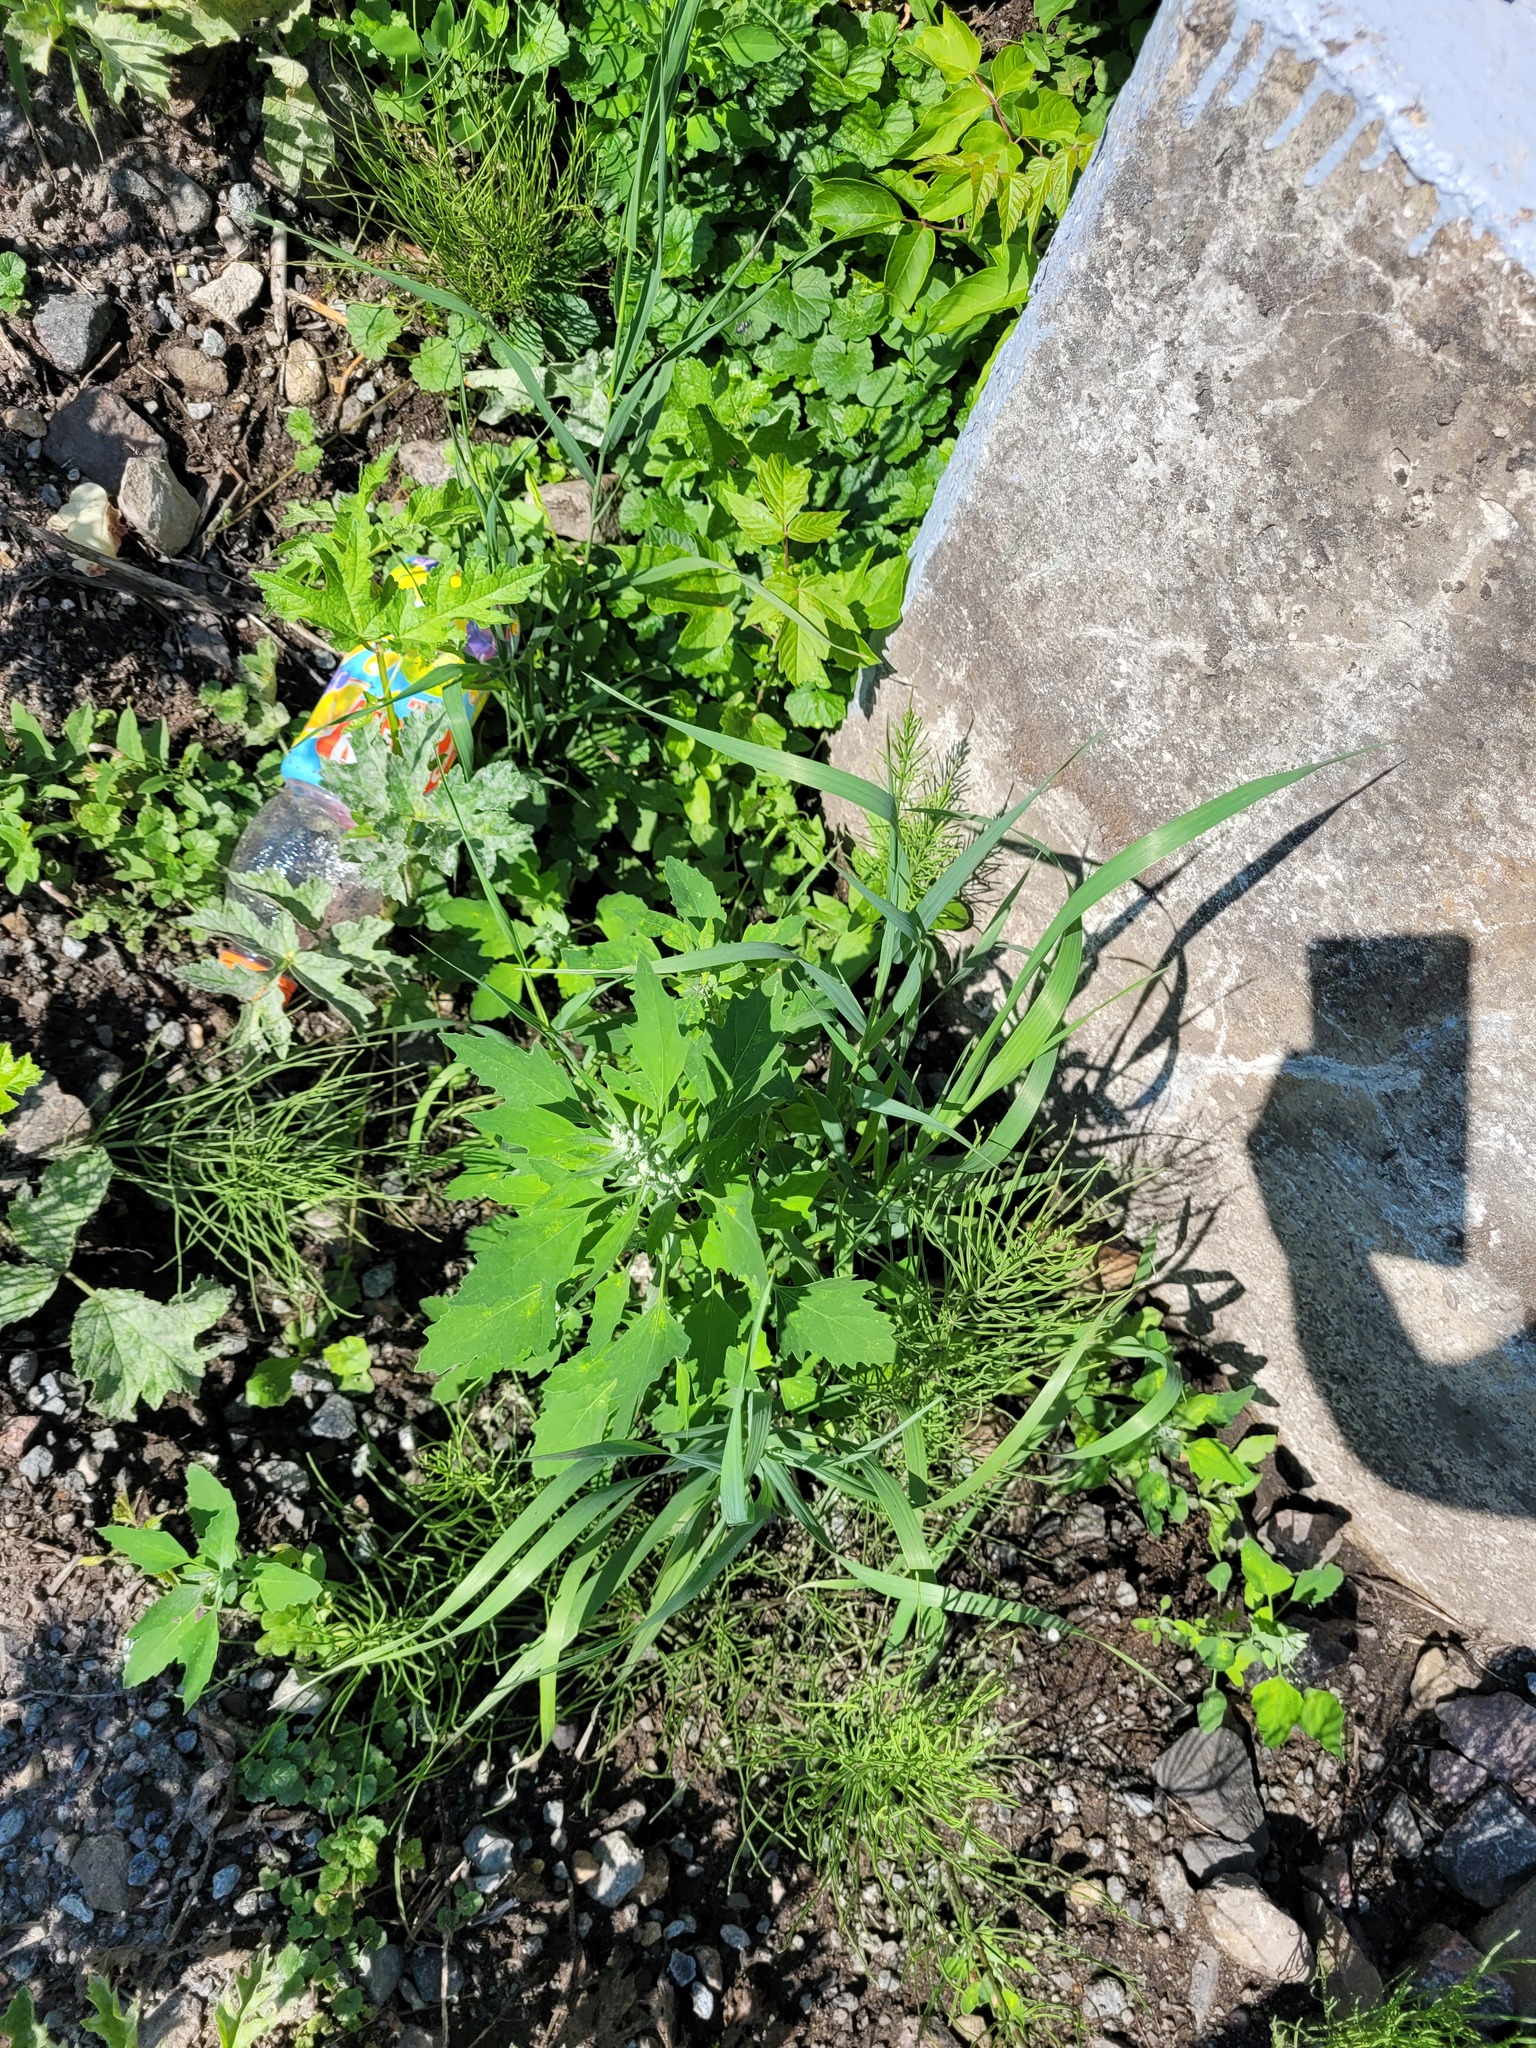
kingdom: Plantae
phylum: Tracheophyta
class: Magnoliopsida
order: Caryophyllales
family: Amaranthaceae
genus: Chenopodium
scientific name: Chenopodium album
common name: Fat-hen
